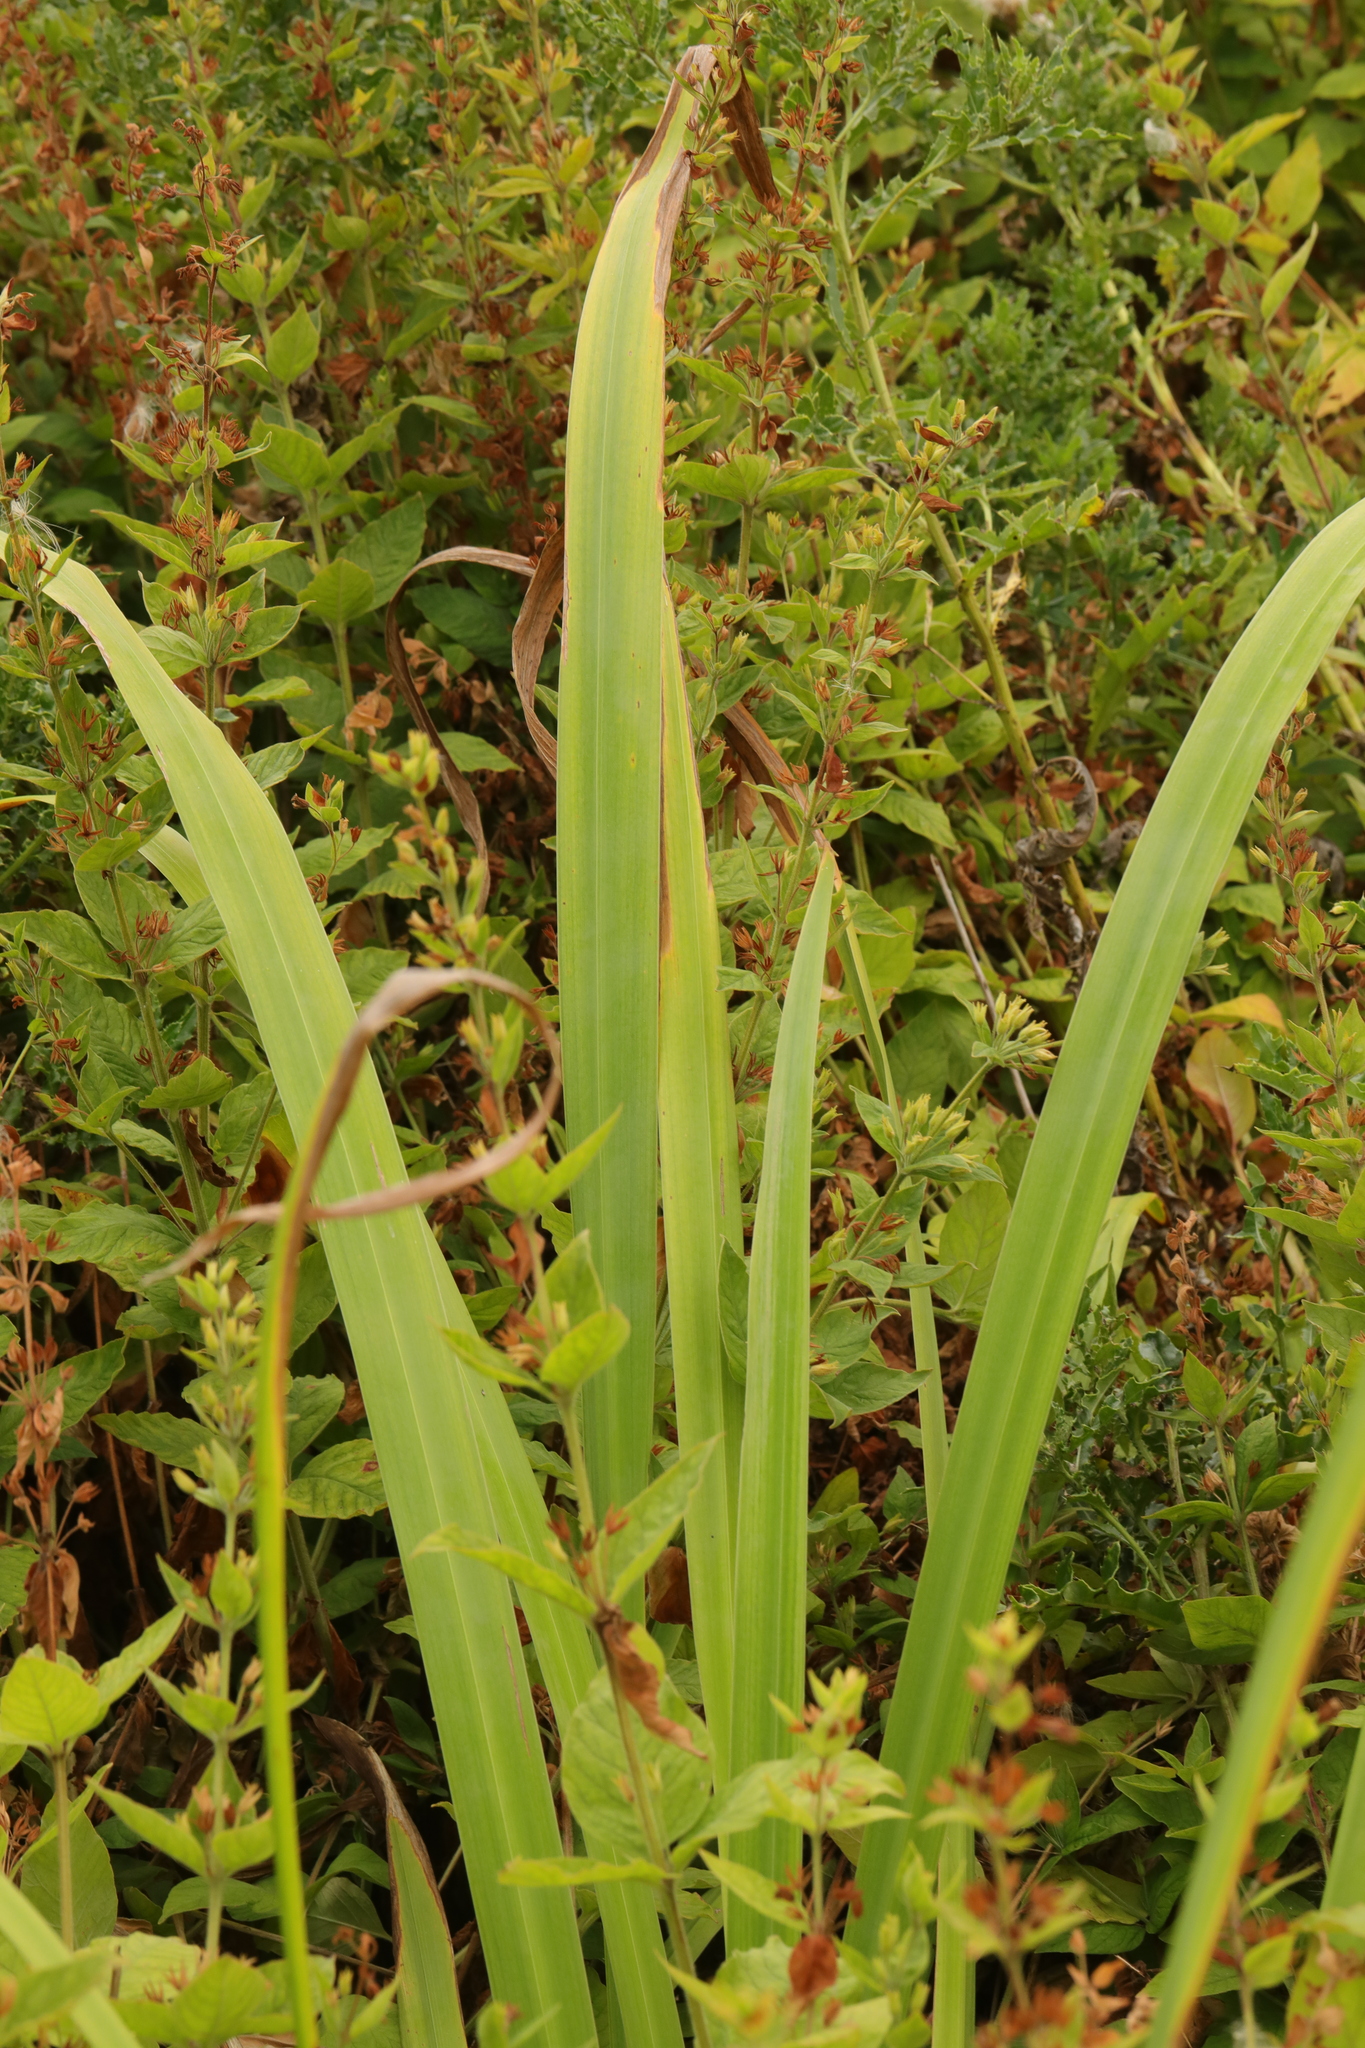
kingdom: Plantae
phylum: Tracheophyta
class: Liliopsida
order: Asparagales
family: Iridaceae
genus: Iris
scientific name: Iris pseudacorus
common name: Yellow flag
